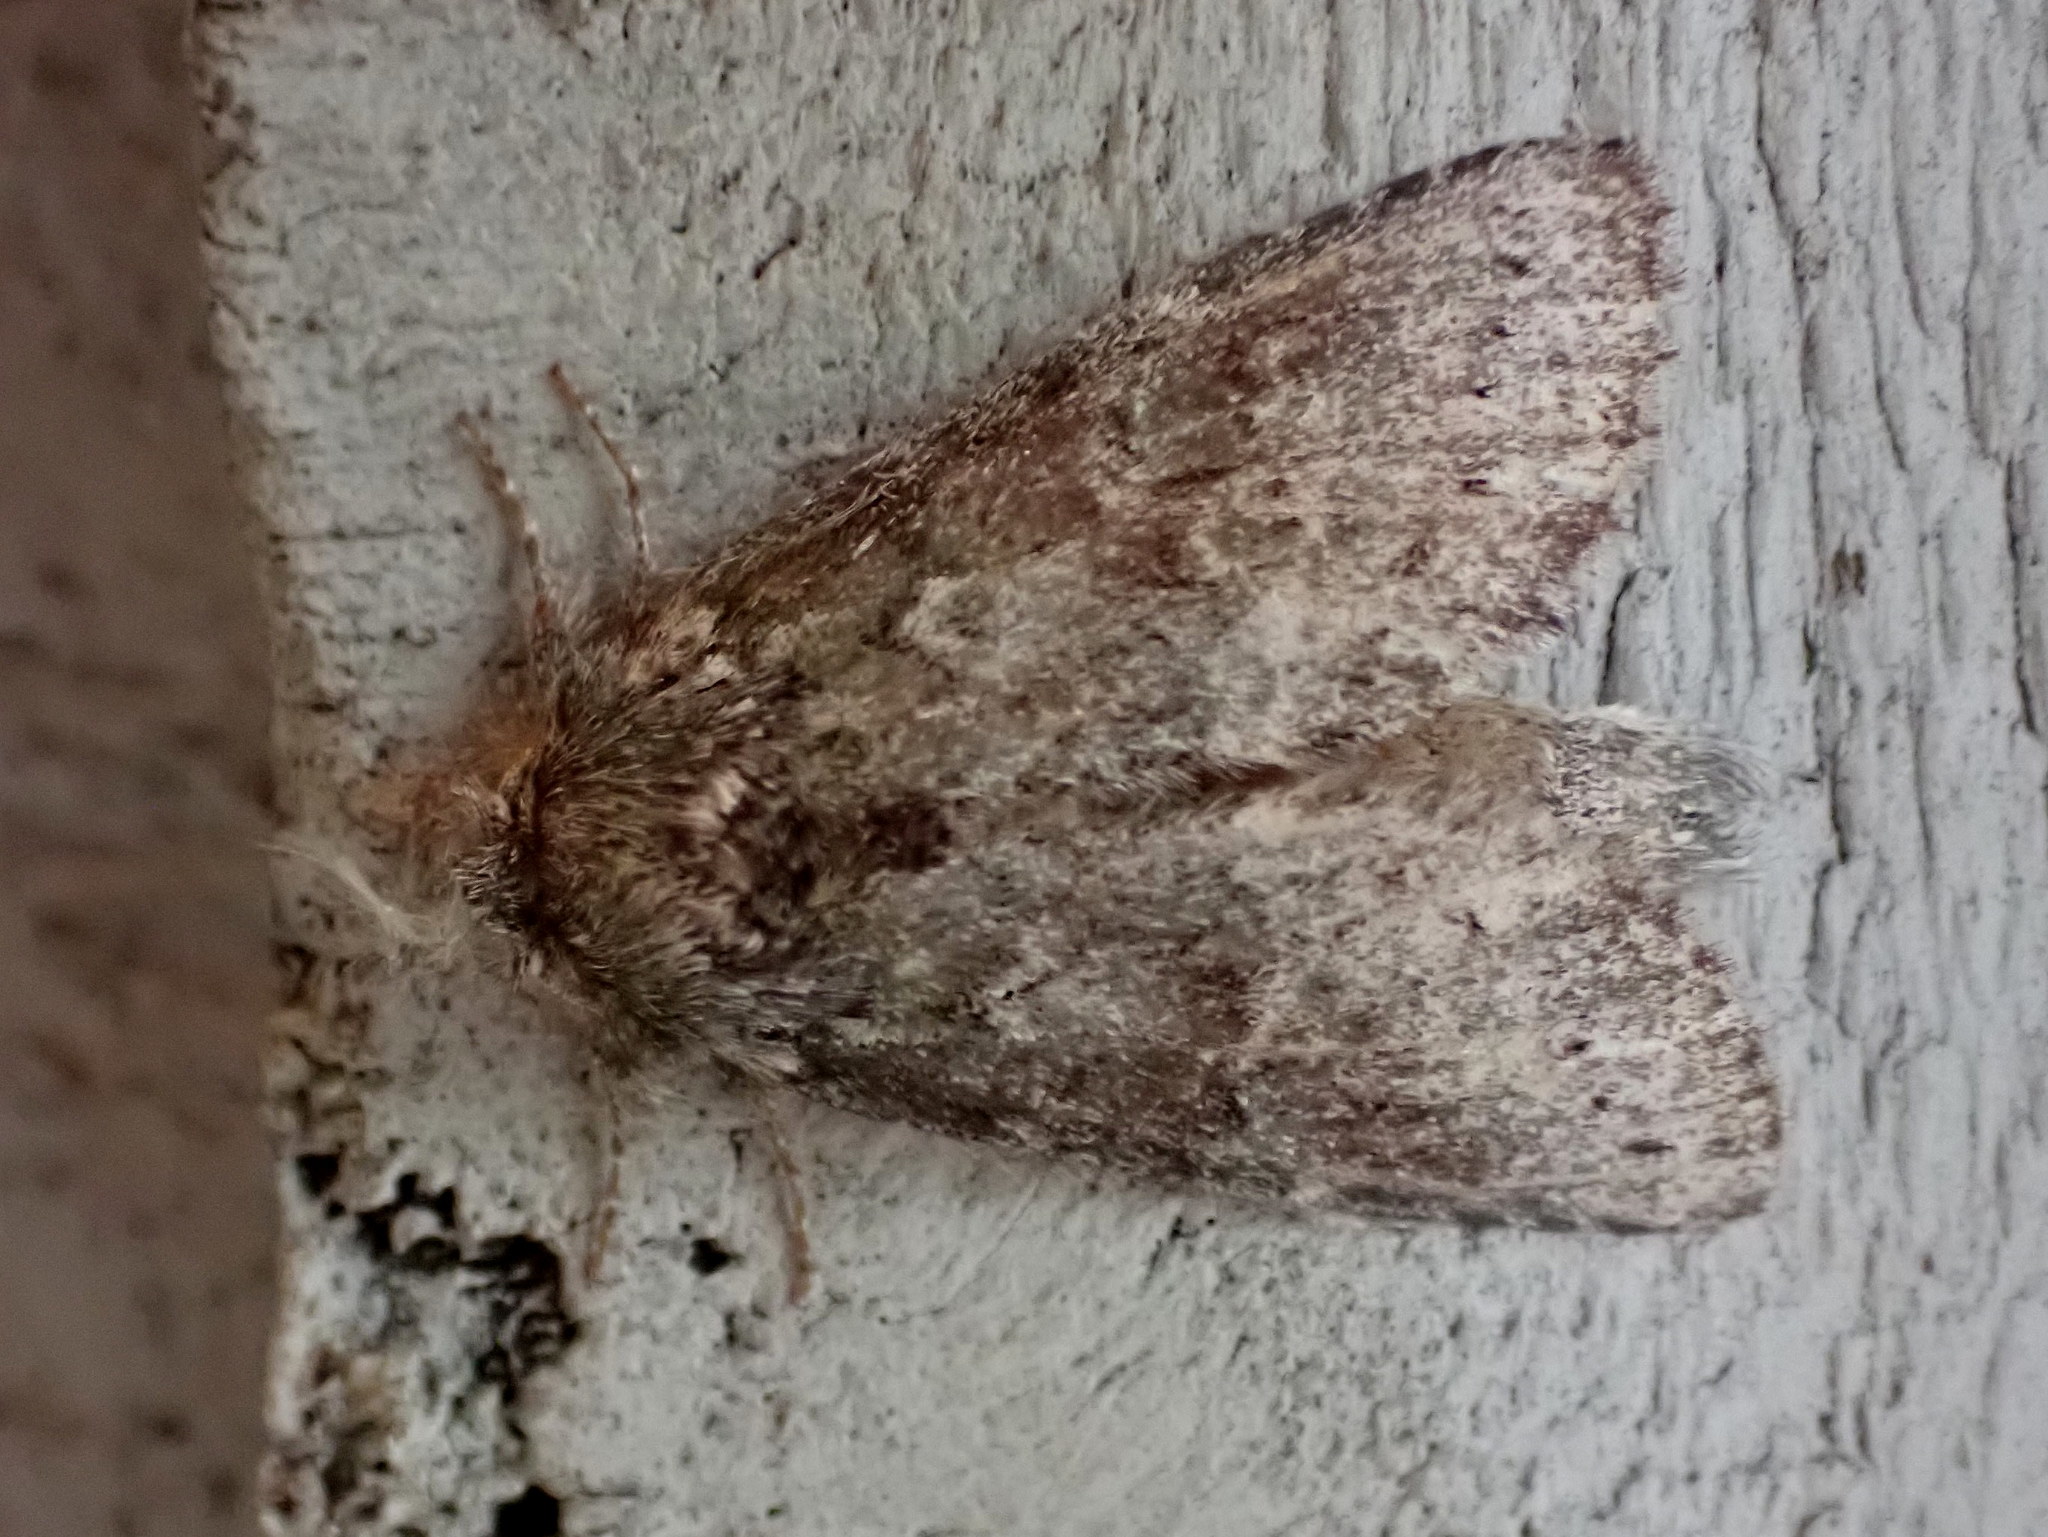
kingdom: Animalia
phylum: Arthropoda
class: Insecta
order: Lepidoptera
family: Notodontidae
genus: Lochmaeus
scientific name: Lochmaeus manteo
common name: Variable oakleaf caterpillar moth
